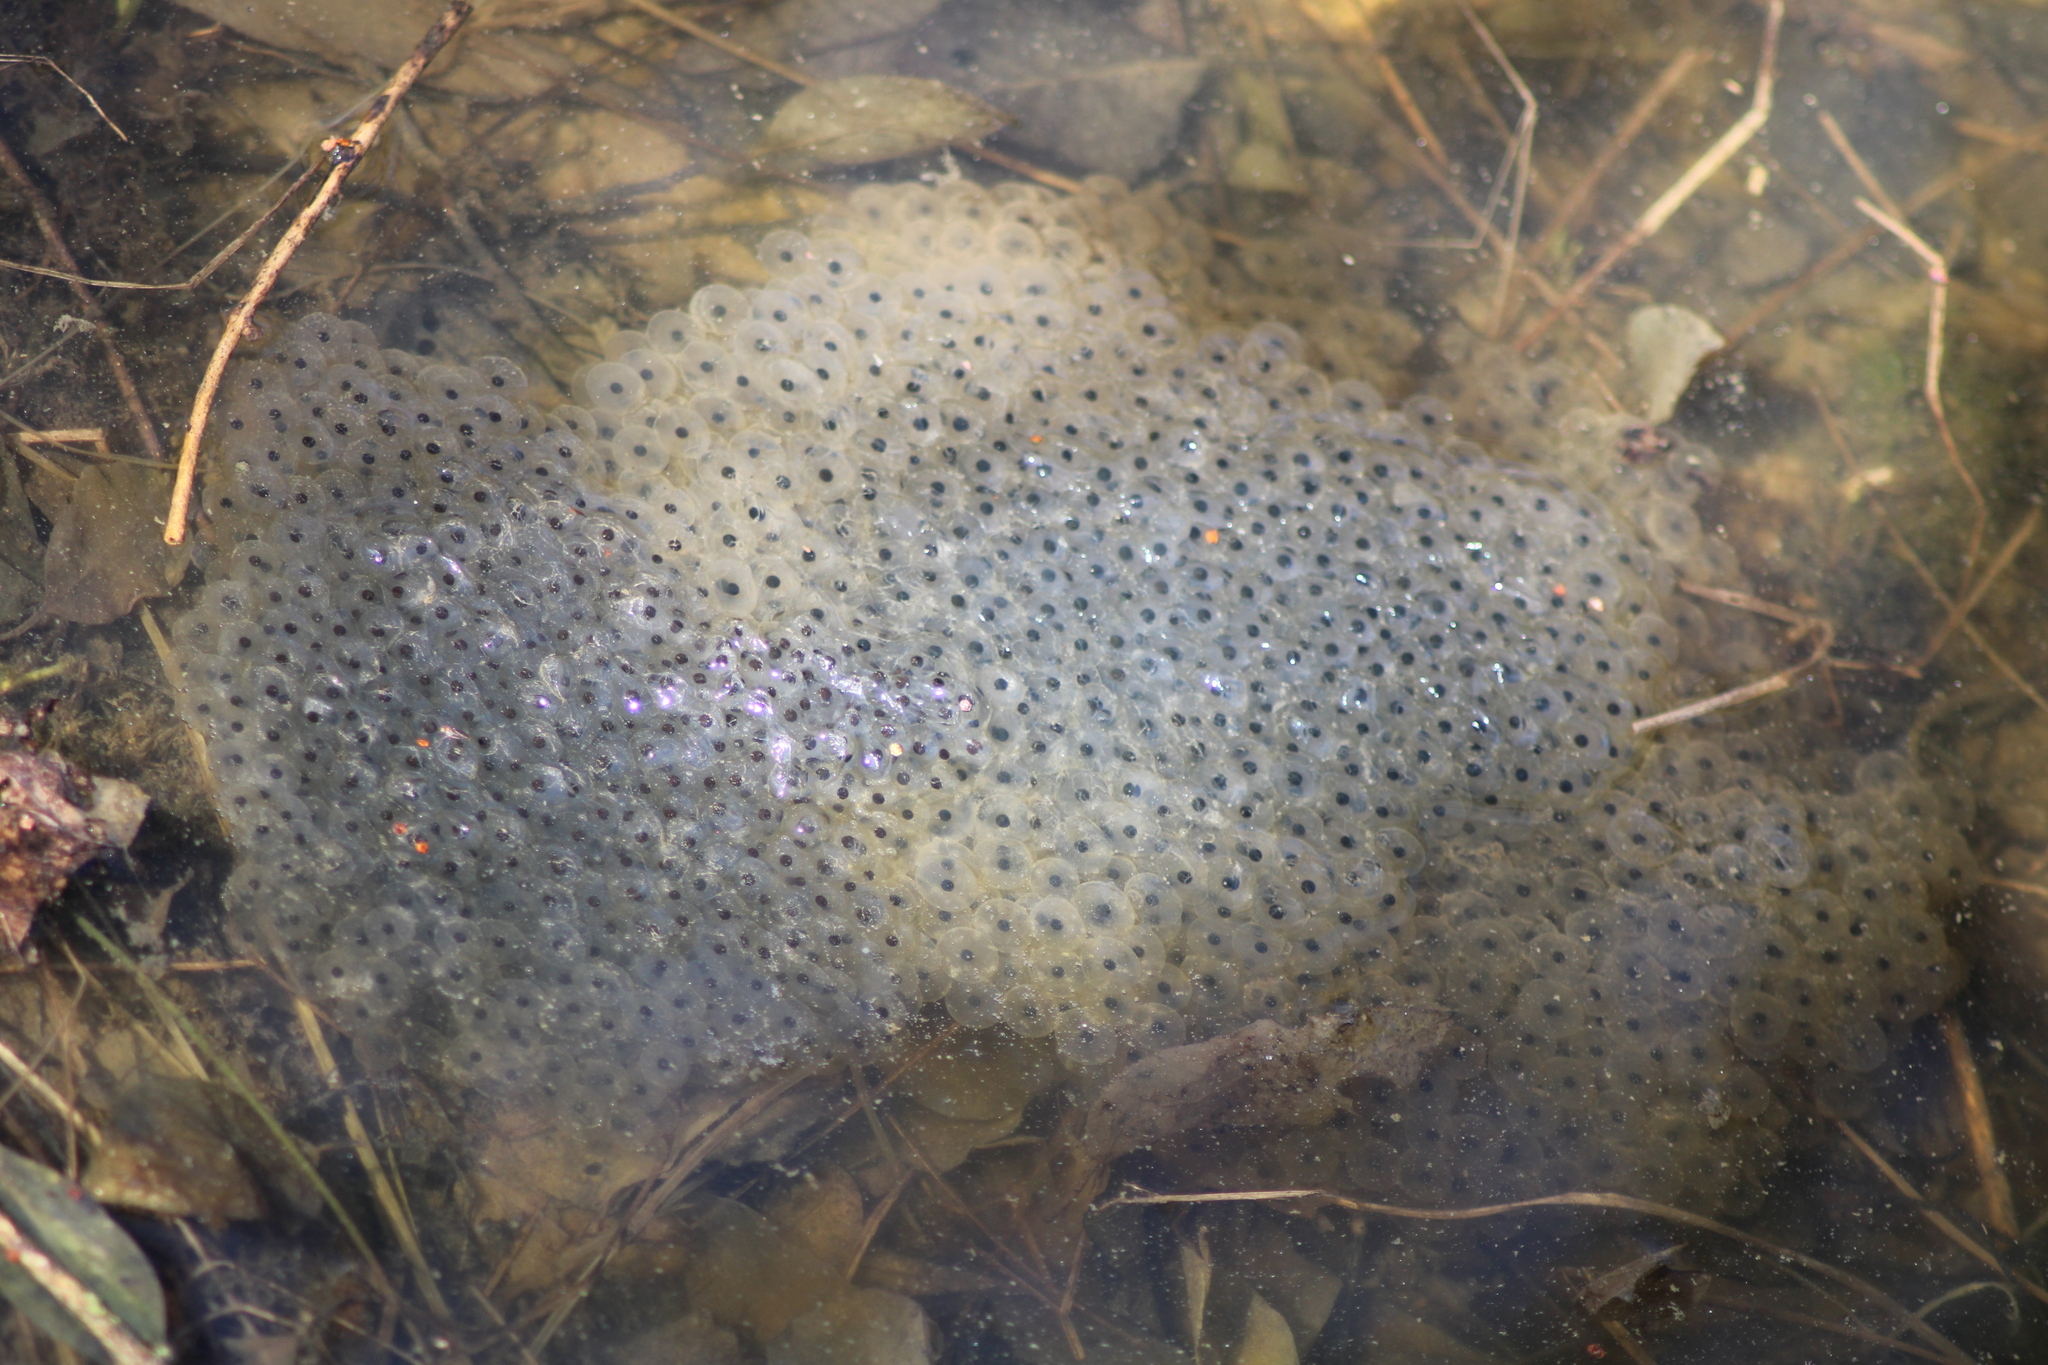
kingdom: Animalia
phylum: Chordata
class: Amphibia
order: Anura
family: Ranidae
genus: Rana
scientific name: Rana temporaria
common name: Common frog
